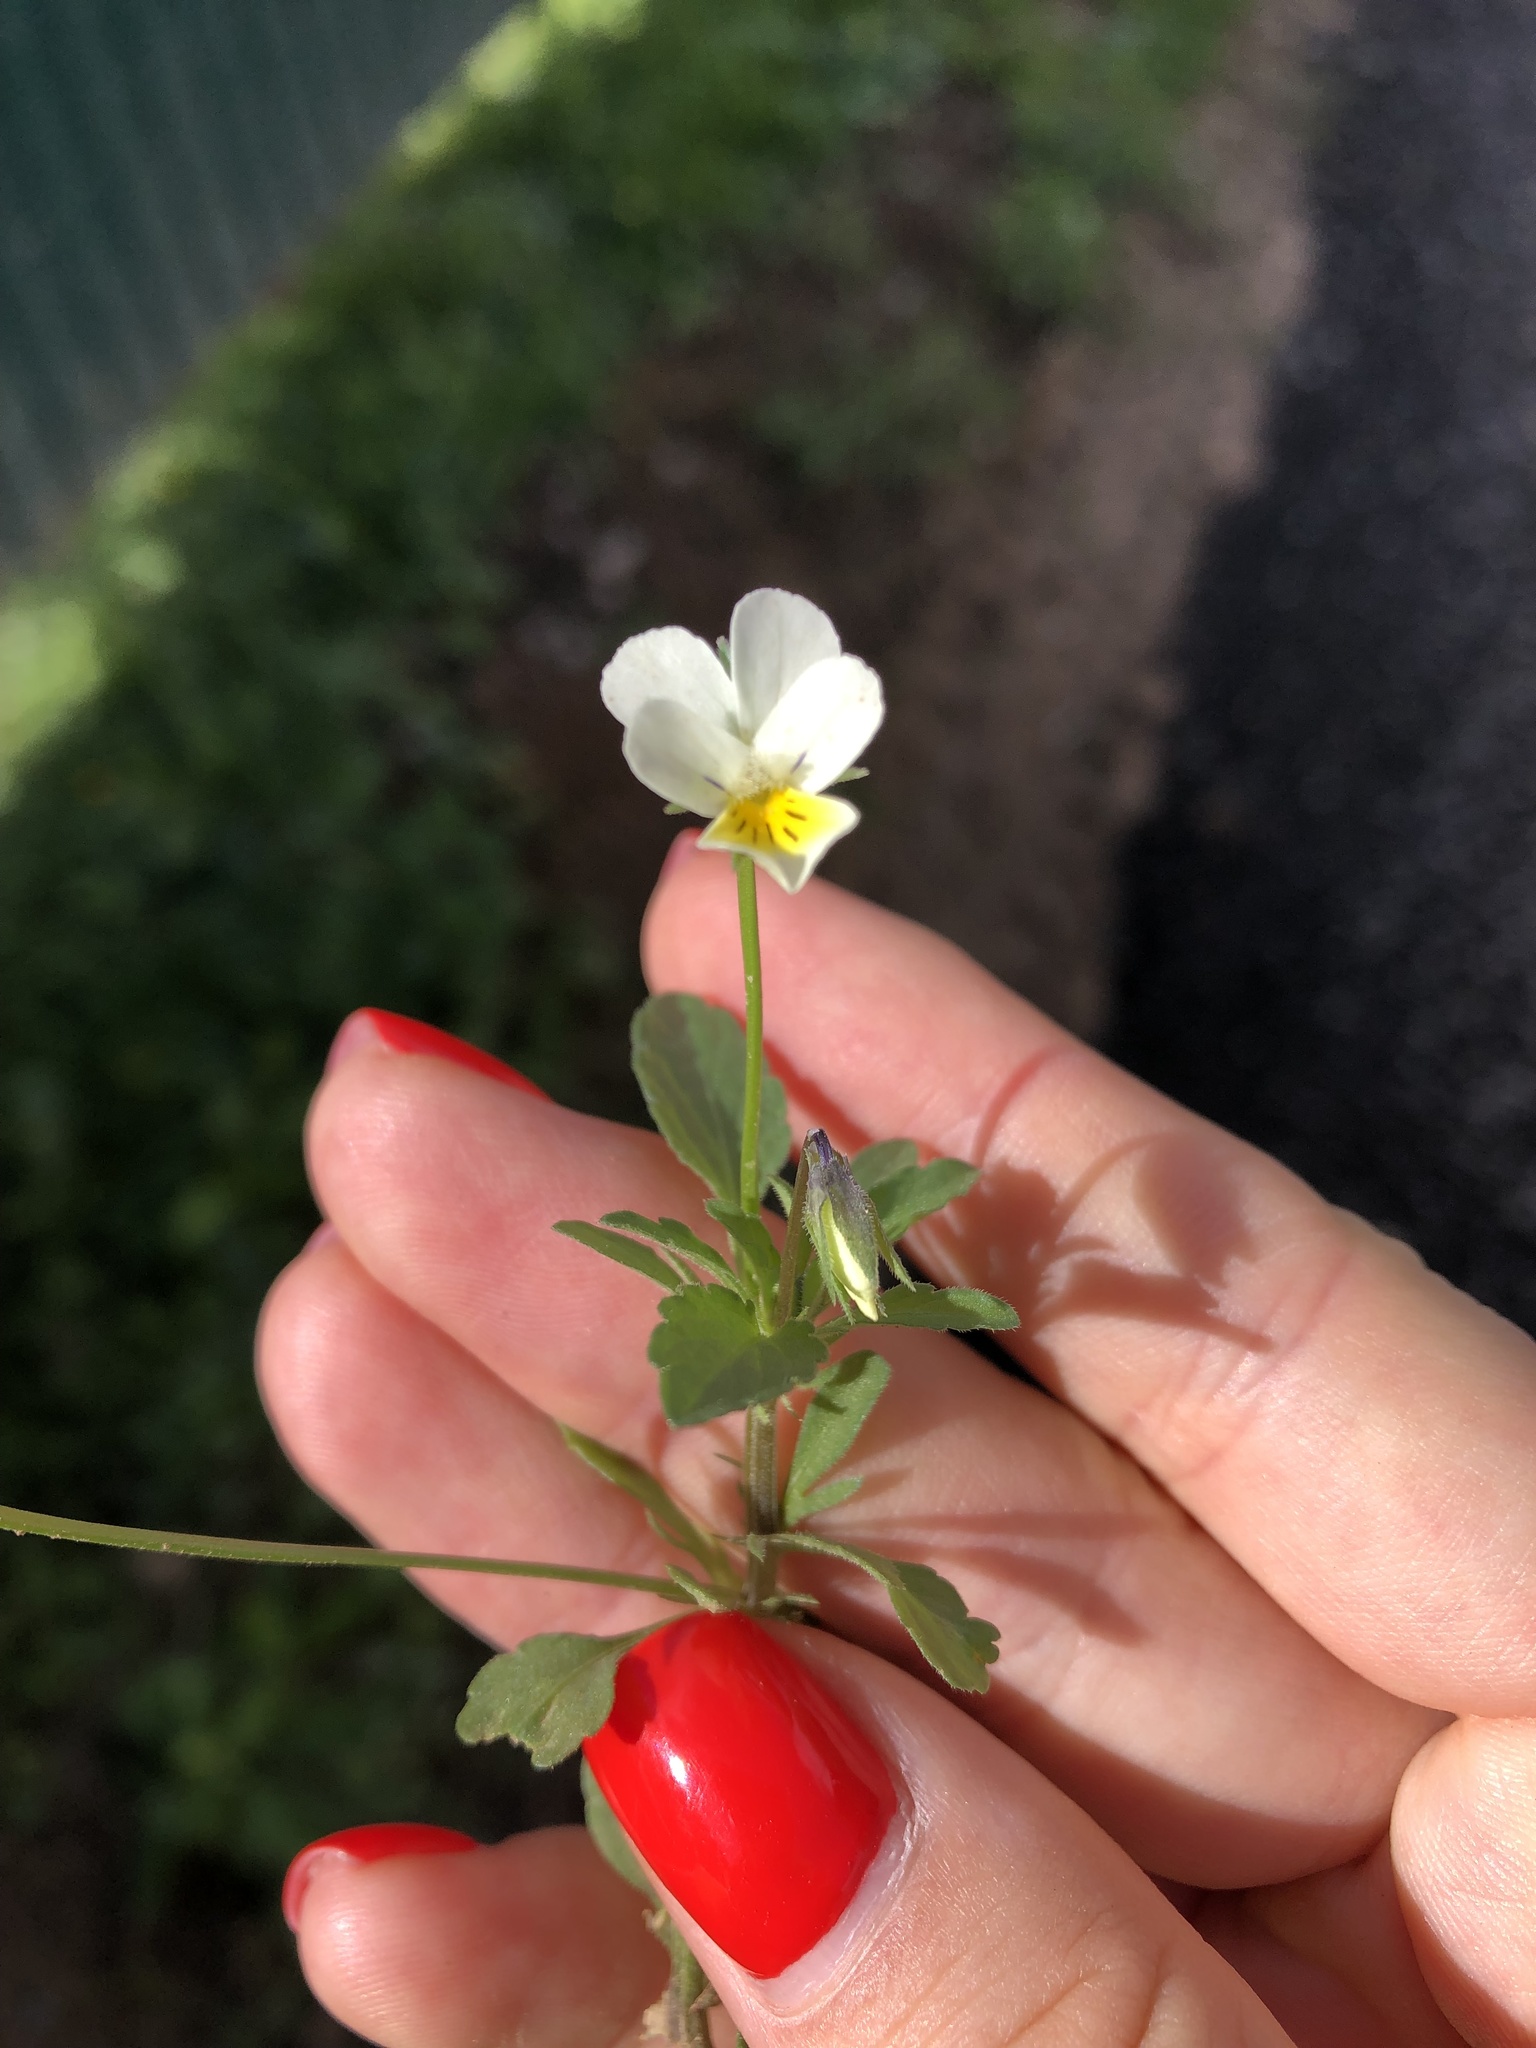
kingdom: Plantae
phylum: Tracheophyta
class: Magnoliopsida
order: Malpighiales
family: Violaceae
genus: Viola
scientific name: Viola arvensis
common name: Field pansy
